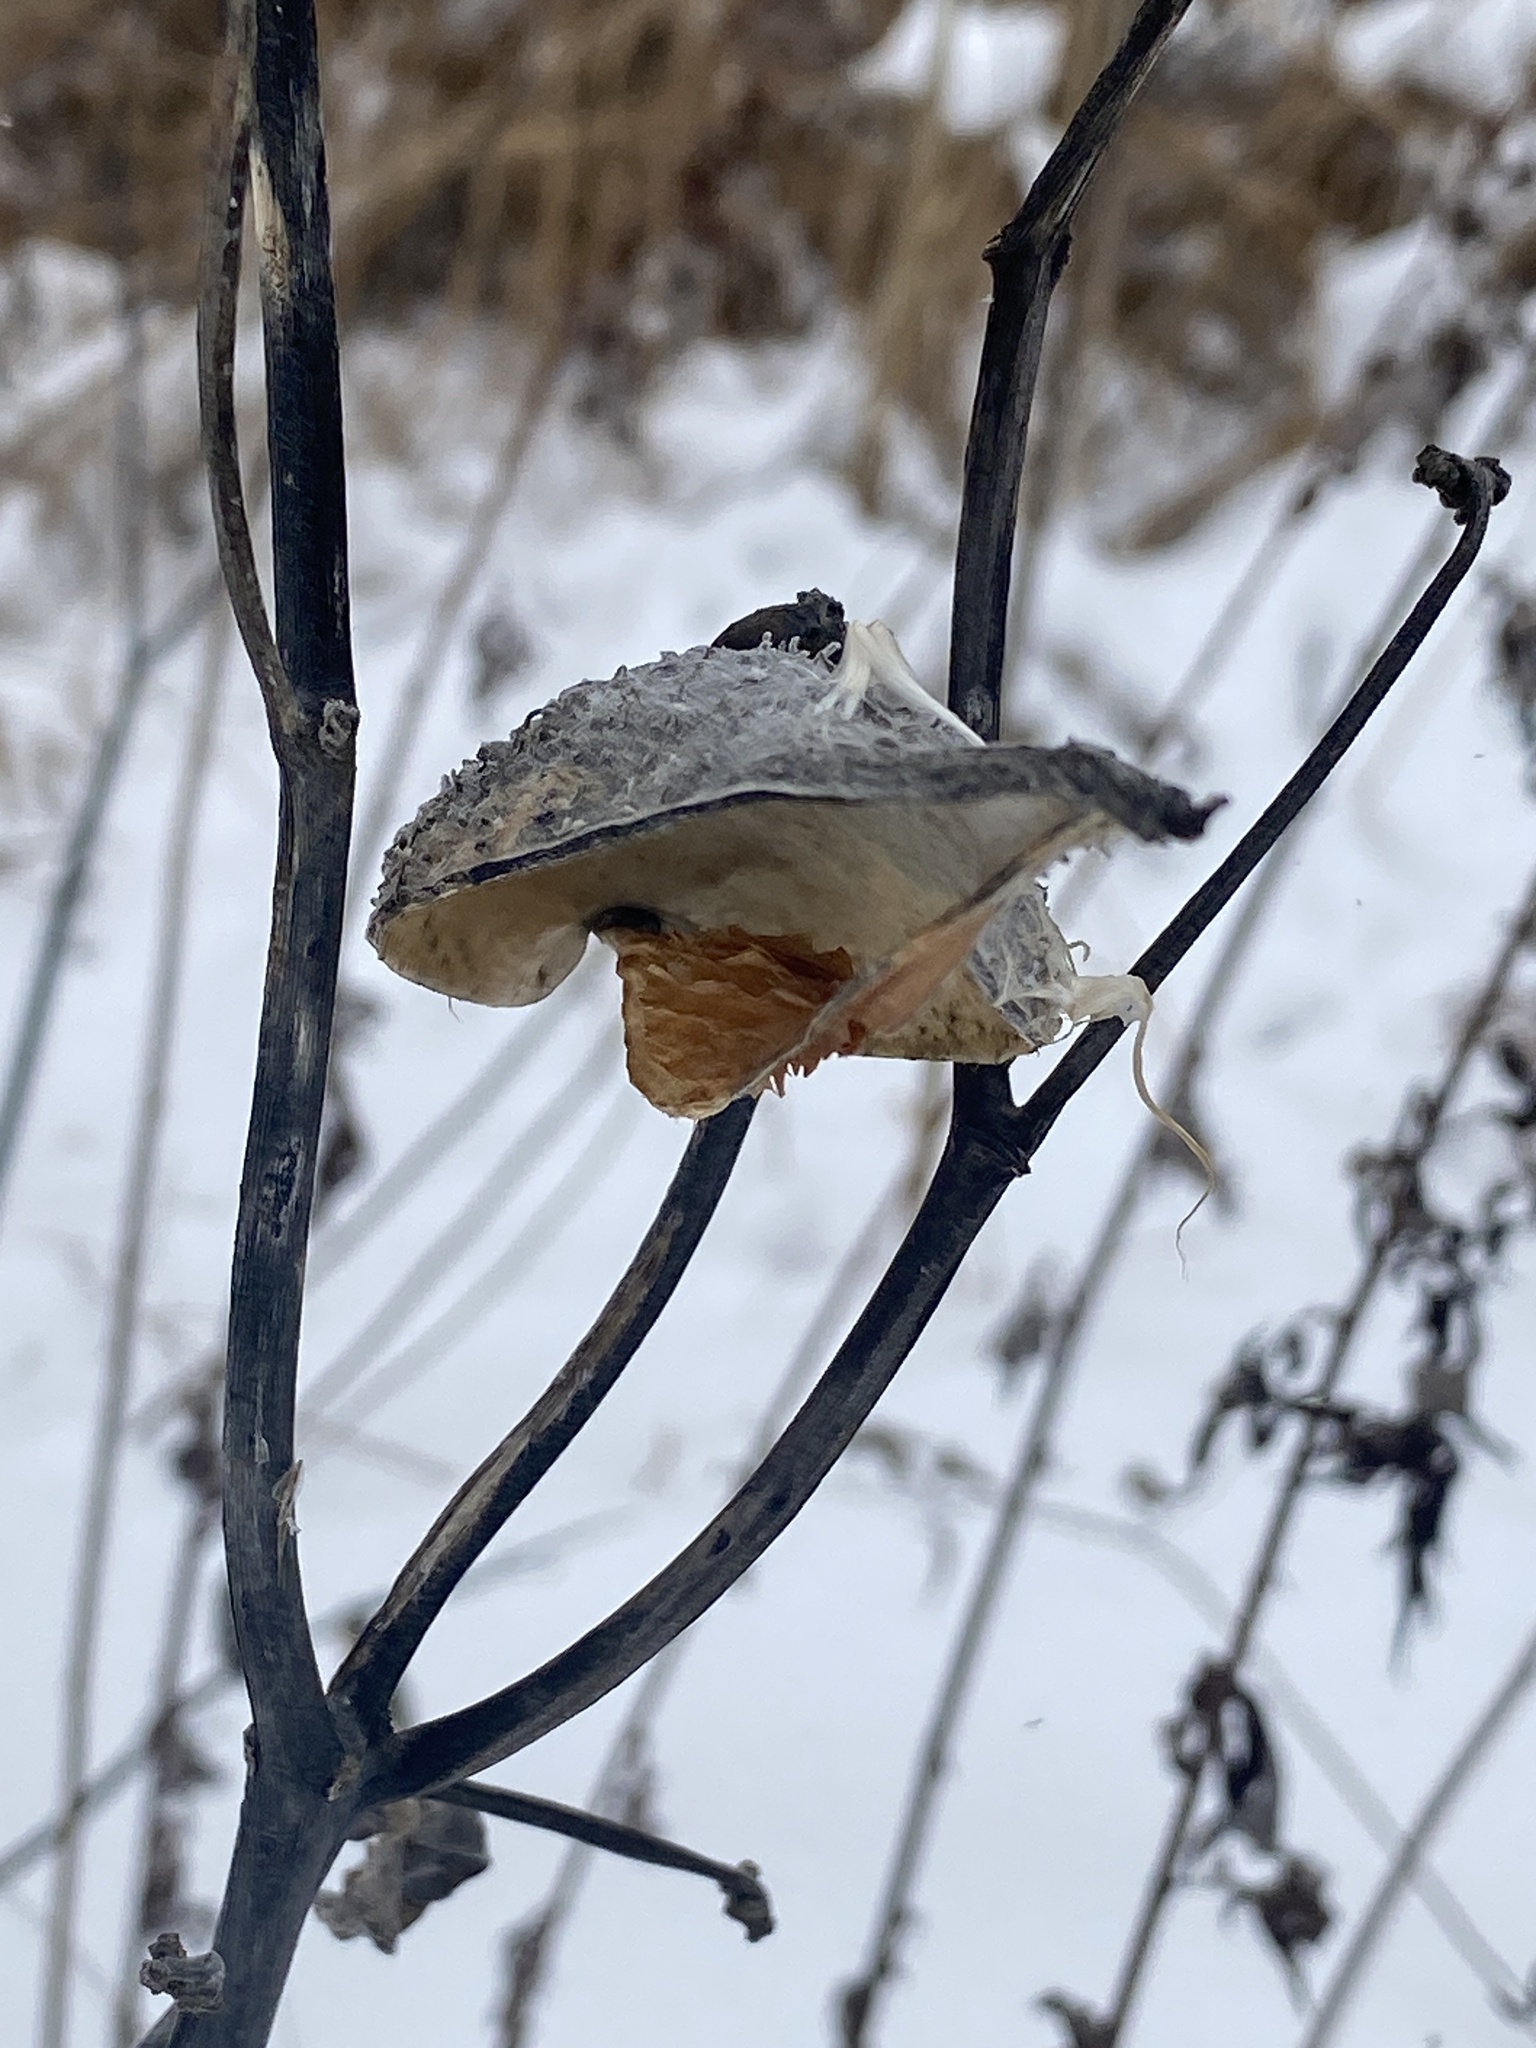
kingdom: Plantae
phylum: Tracheophyta
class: Magnoliopsida
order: Gentianales
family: Apocynaceae
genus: Asclepias
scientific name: Asclepias syriaca
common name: Common milkweed
